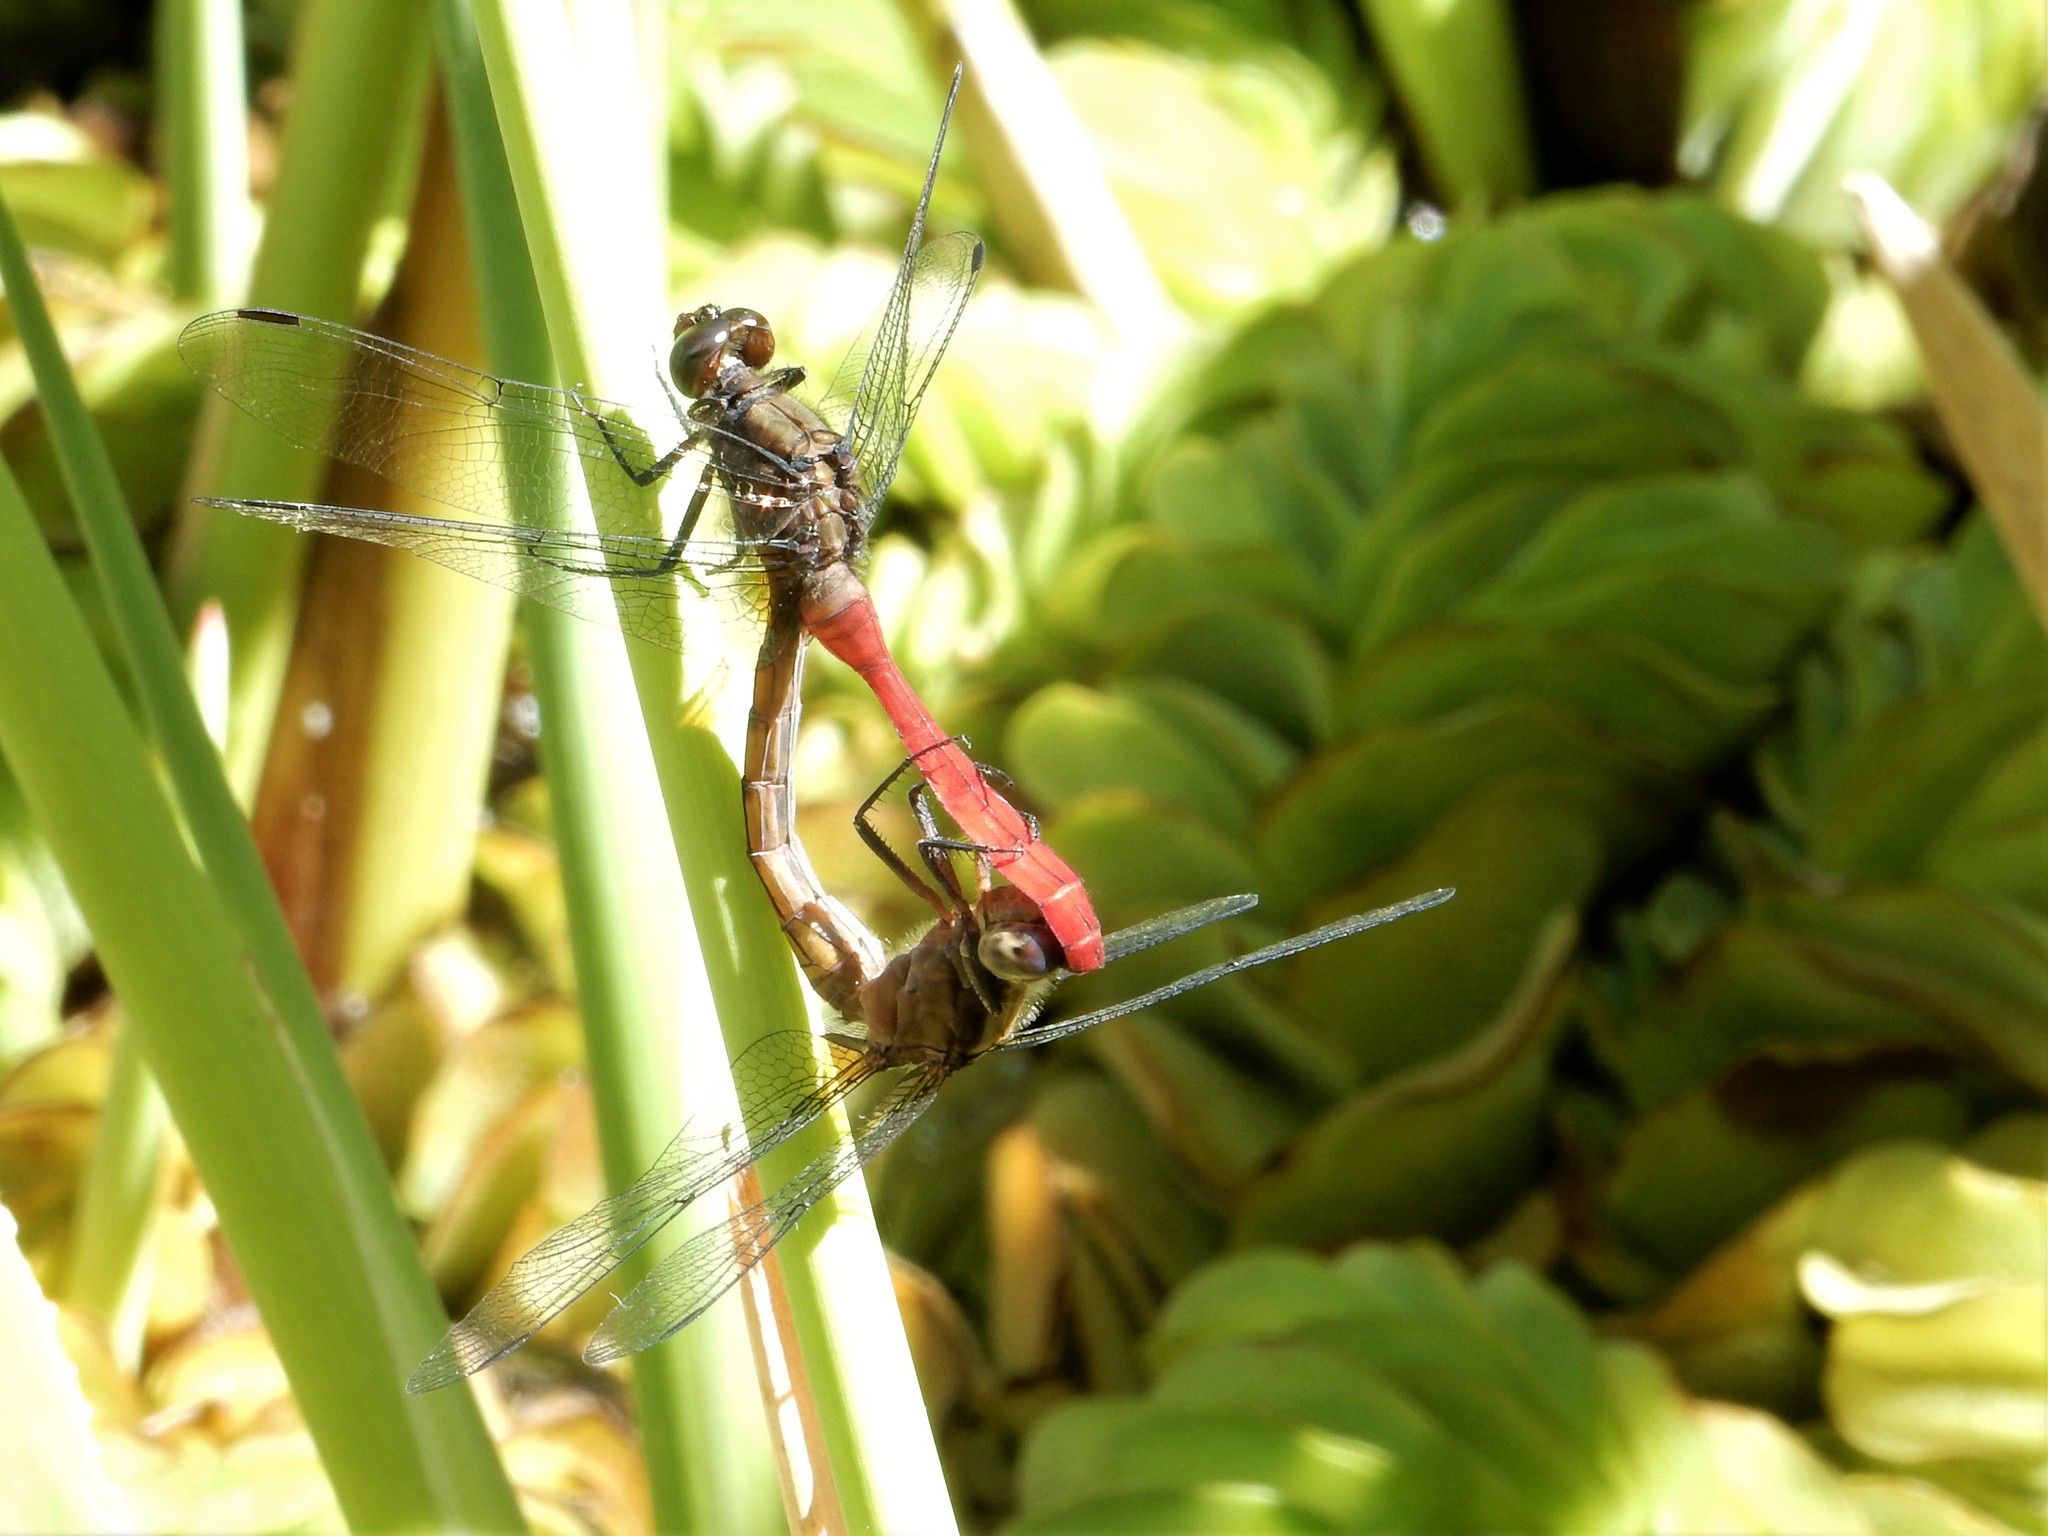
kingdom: Animalia
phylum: Arthropoda
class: Insecta
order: Odonata
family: Libellulidae
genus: Orthetrum
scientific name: Orthetrum villosovittatum
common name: Firery skimmer
